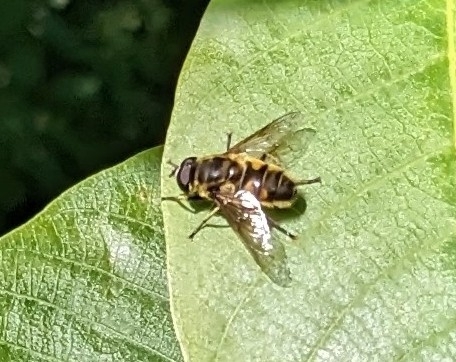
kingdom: Animalia
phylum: Arthropoda
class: Insecta
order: Diptera
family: Syrphidae
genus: Myathropa
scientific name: Myathropa florea
